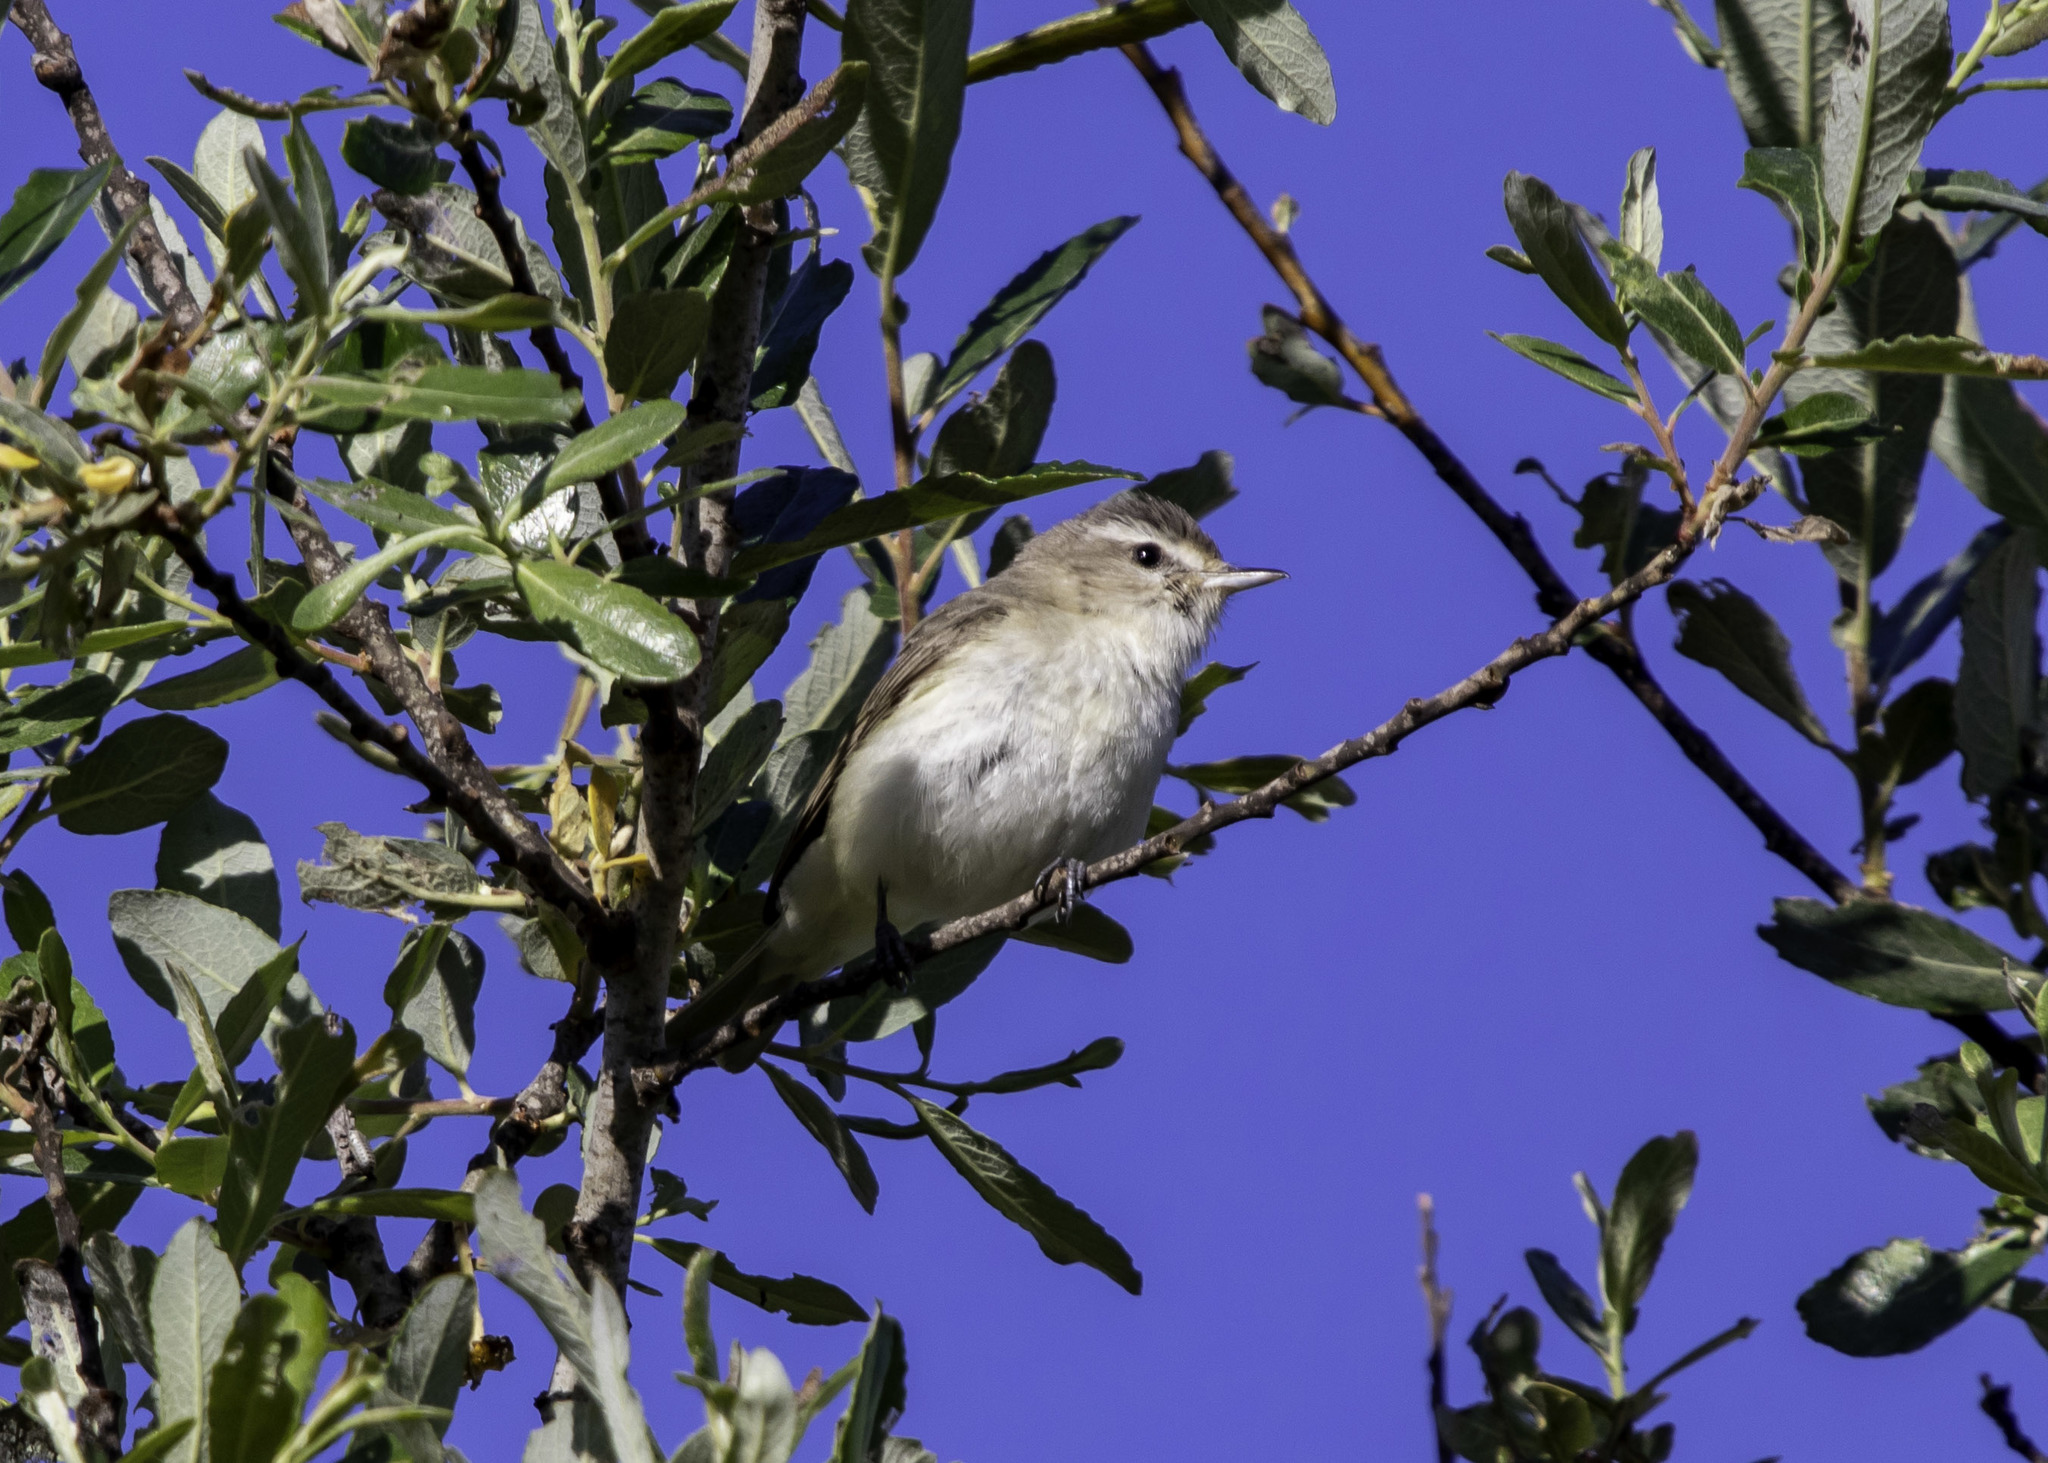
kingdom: Animalia
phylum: Chordata
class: Aves
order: Passeriformes
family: Vireonidae
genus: Vireo
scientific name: Vireo gilvus
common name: Warbling vireo
